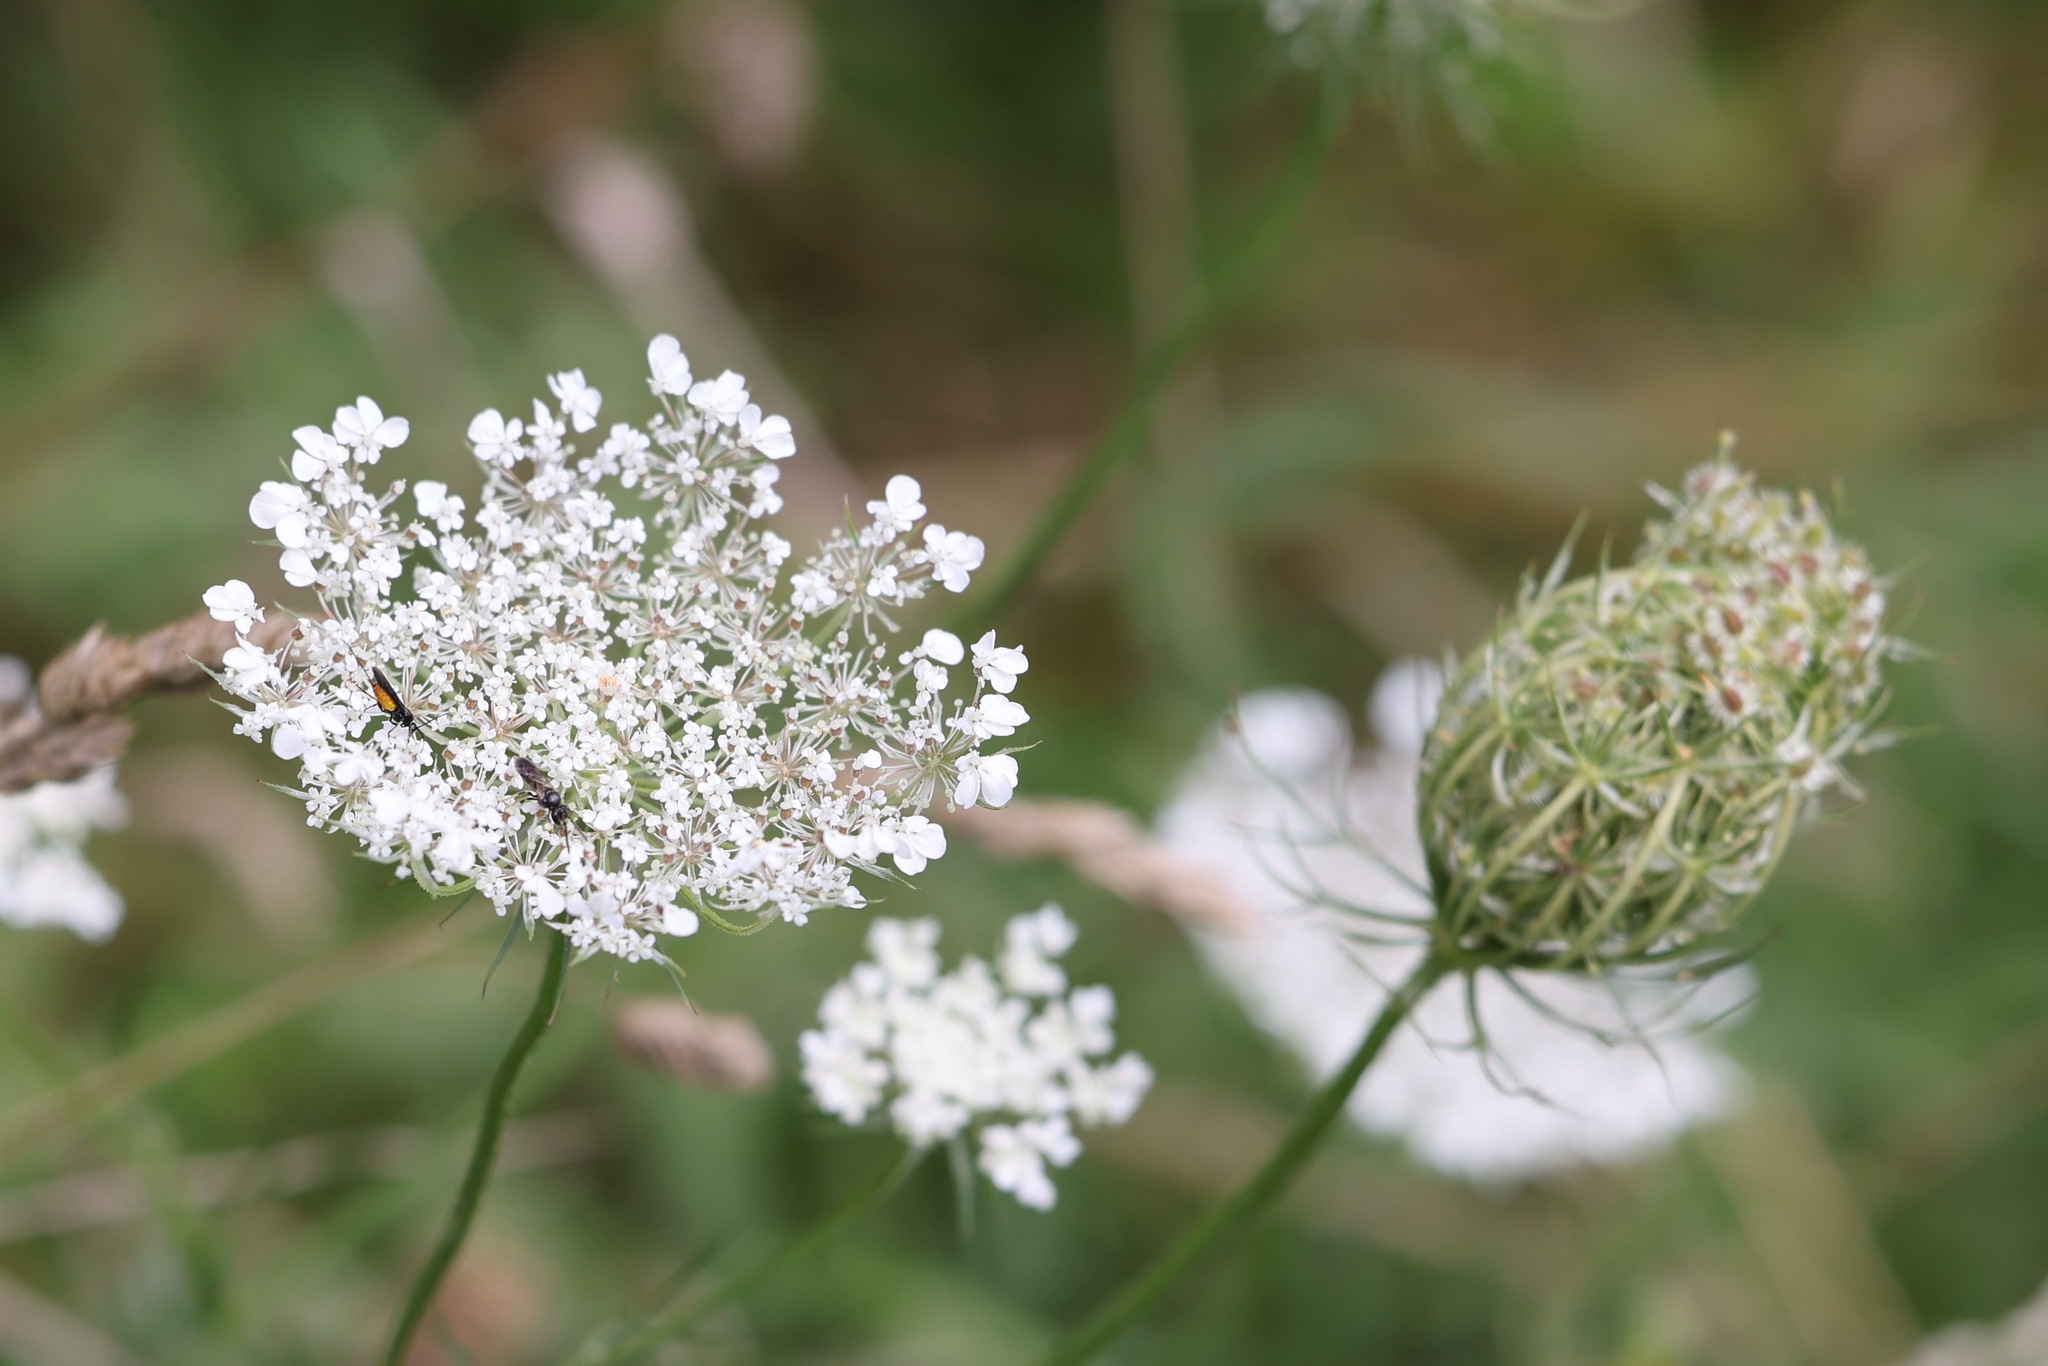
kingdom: Plantae
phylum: Tracheophyta
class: Magnoliopsida
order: Apiales
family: Apiaceae
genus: Daucus
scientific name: Daucus carota
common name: Wild carrot
